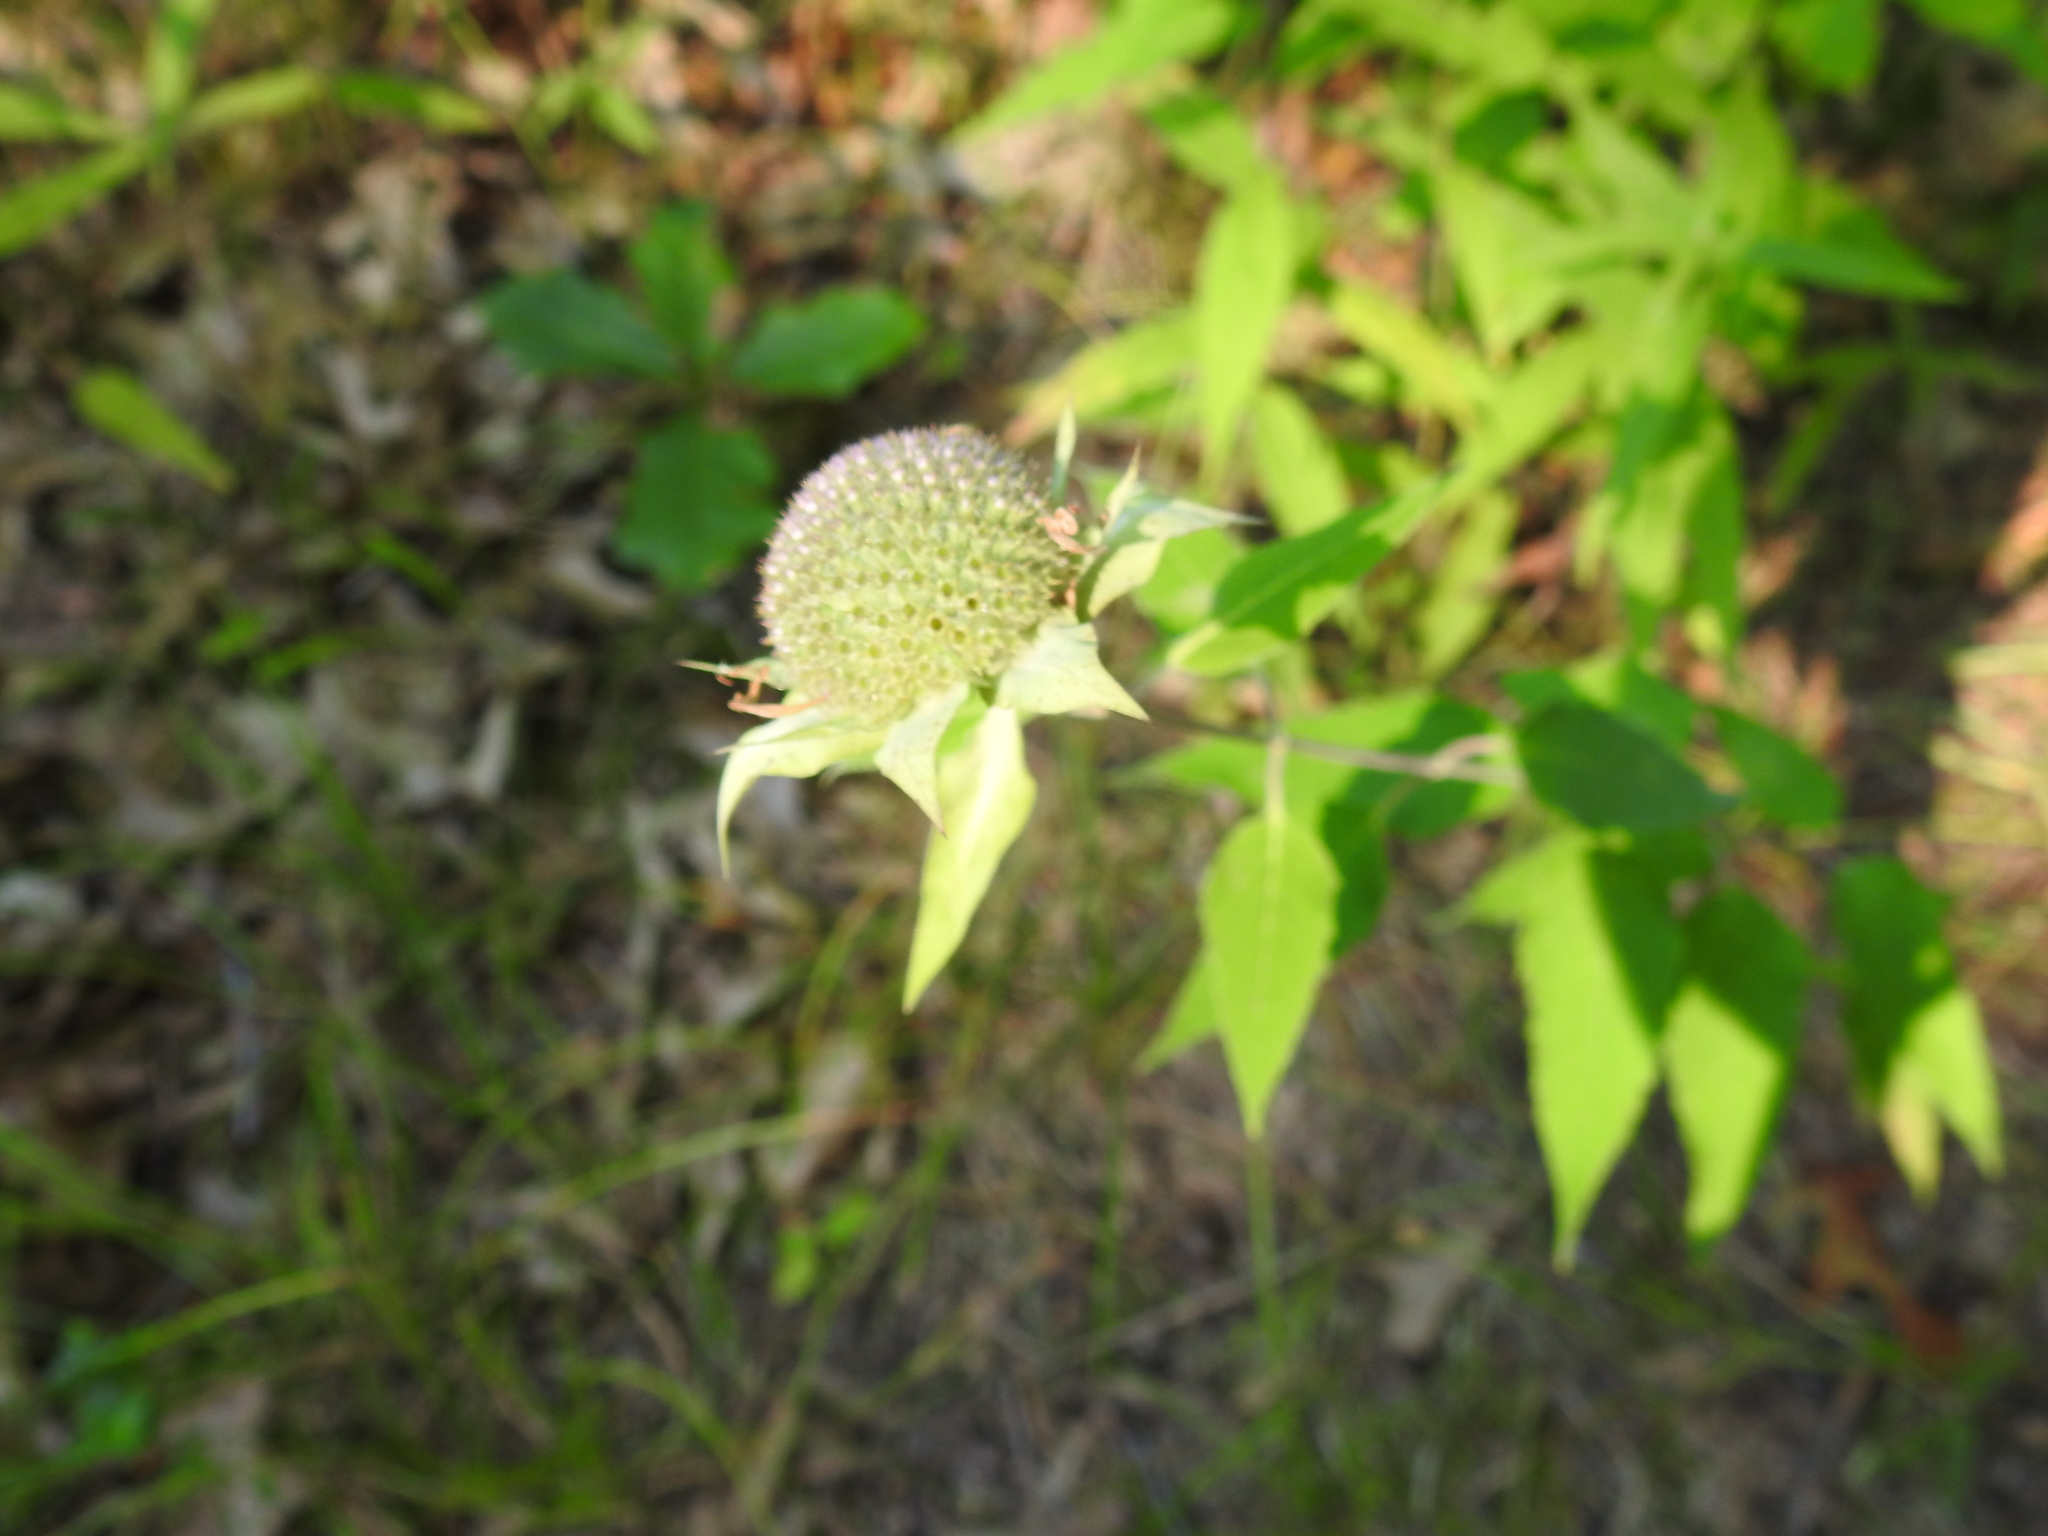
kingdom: Plantae
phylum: Tracheophyta
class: Magnoliopsida
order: Lamiales
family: Lamiaceae
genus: Monarda
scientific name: Monarda fistulosa
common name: Purple beebalm
